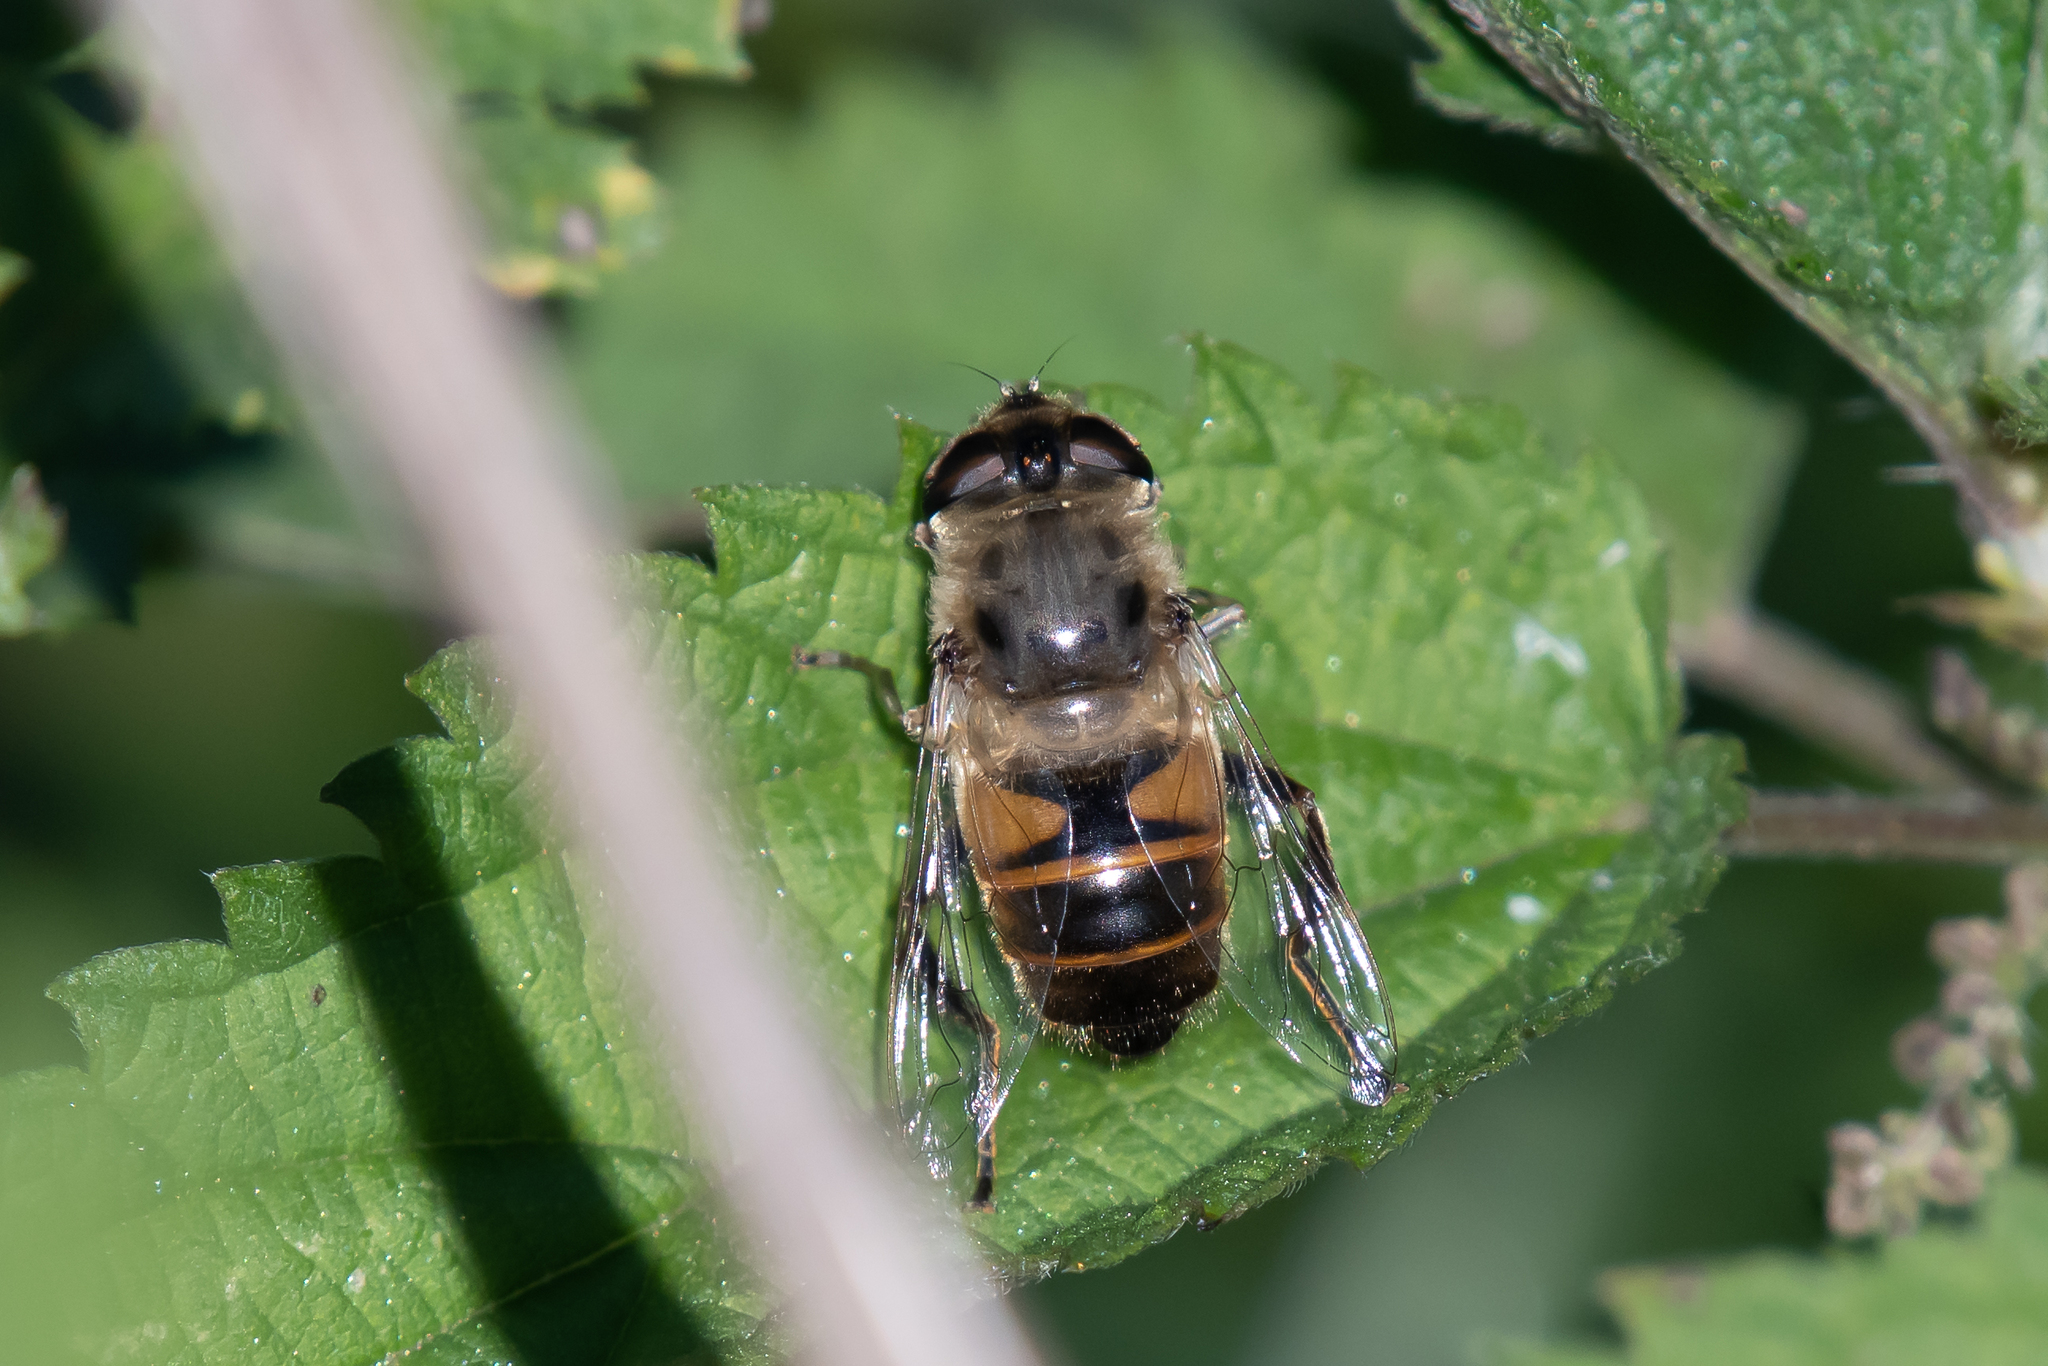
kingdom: Animalia
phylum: Arthropoda
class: Insecta
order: Diptera
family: Syrphidae
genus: Eristalis
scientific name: Eristalis tenax
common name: Drone fly
